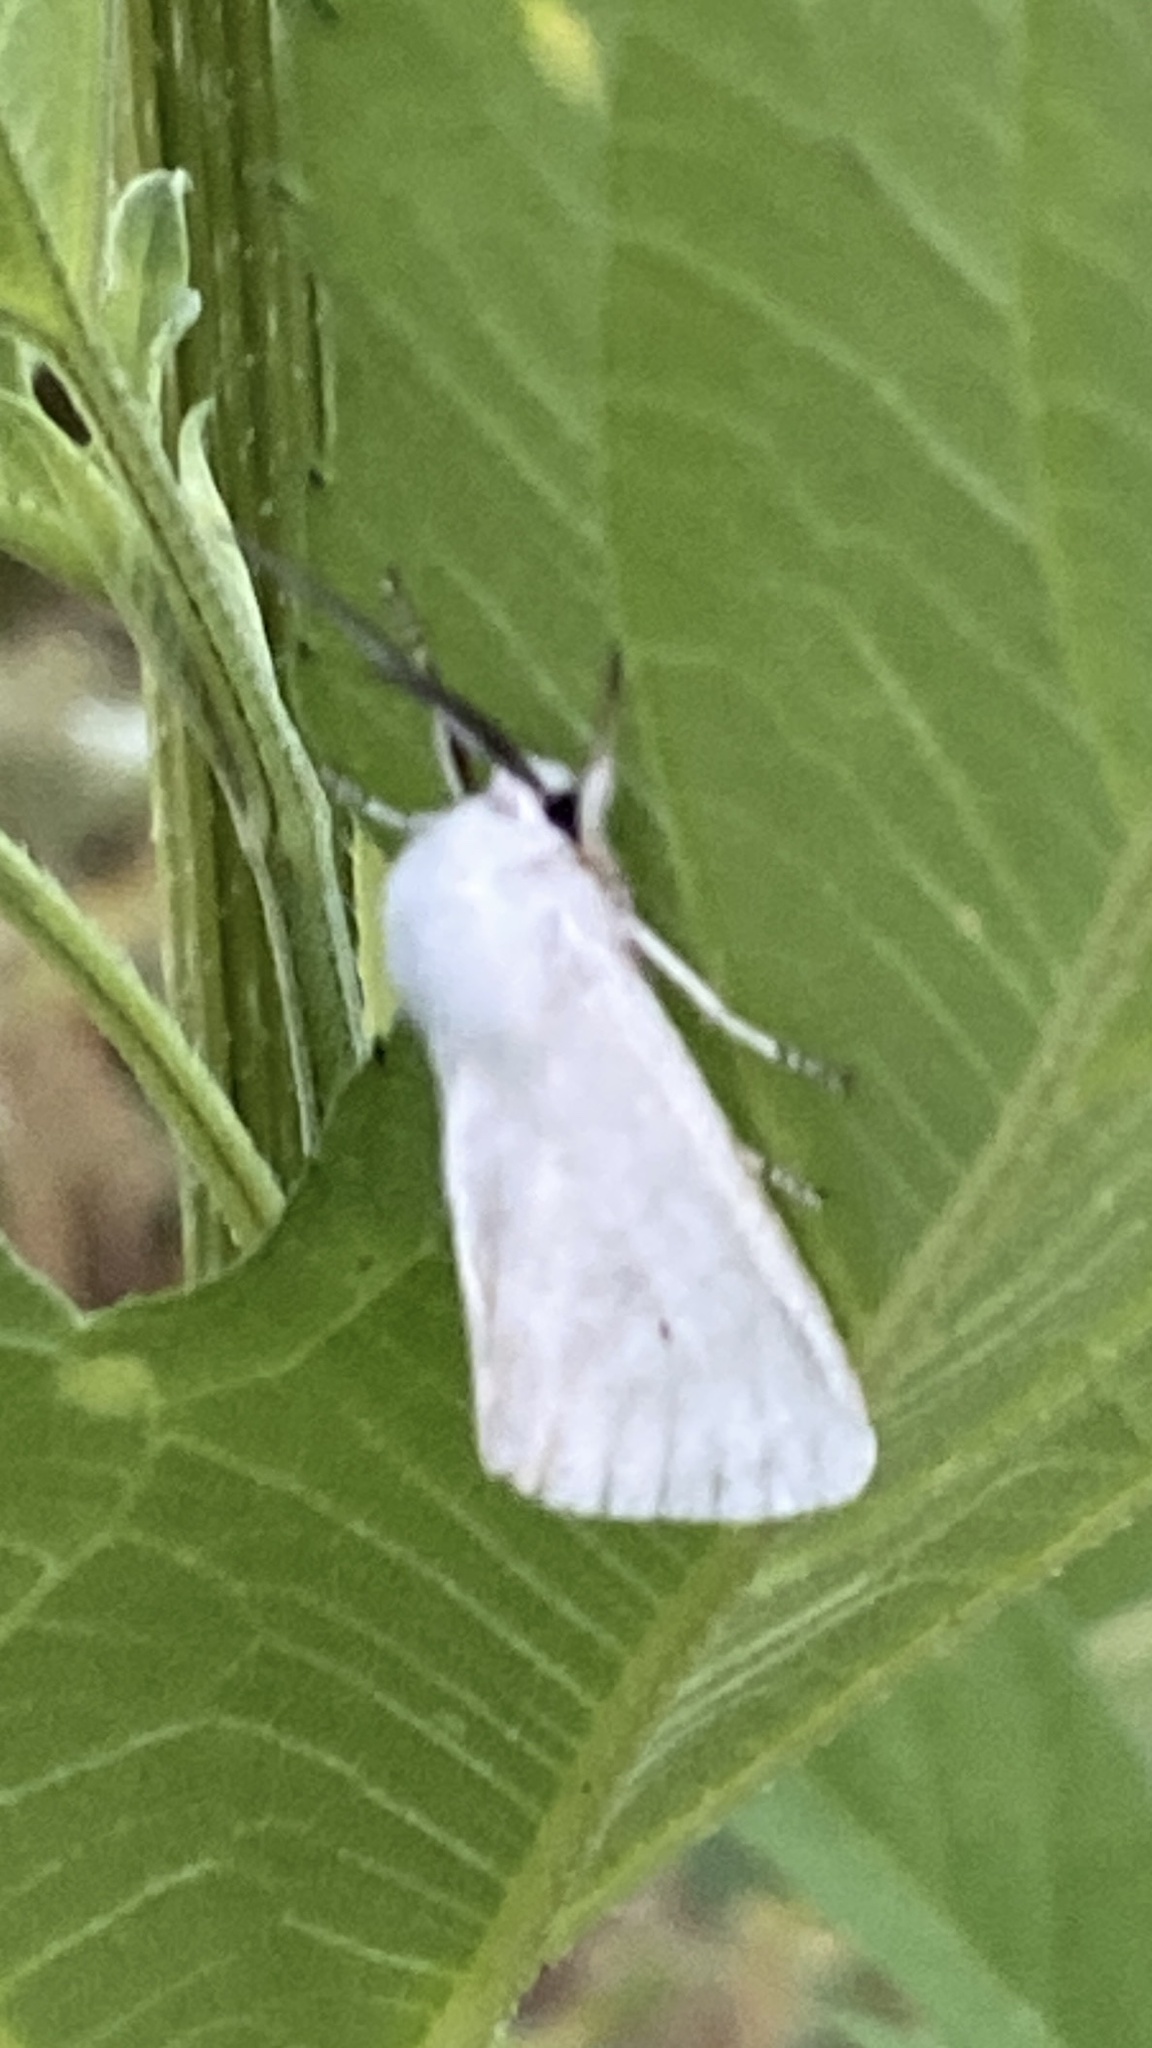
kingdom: Animalia
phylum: Arthropoda
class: Insecta
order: Lepidoptera
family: Erebidae
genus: Spilosoma
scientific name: Spilosoma virginica
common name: Virginia tiger moth
